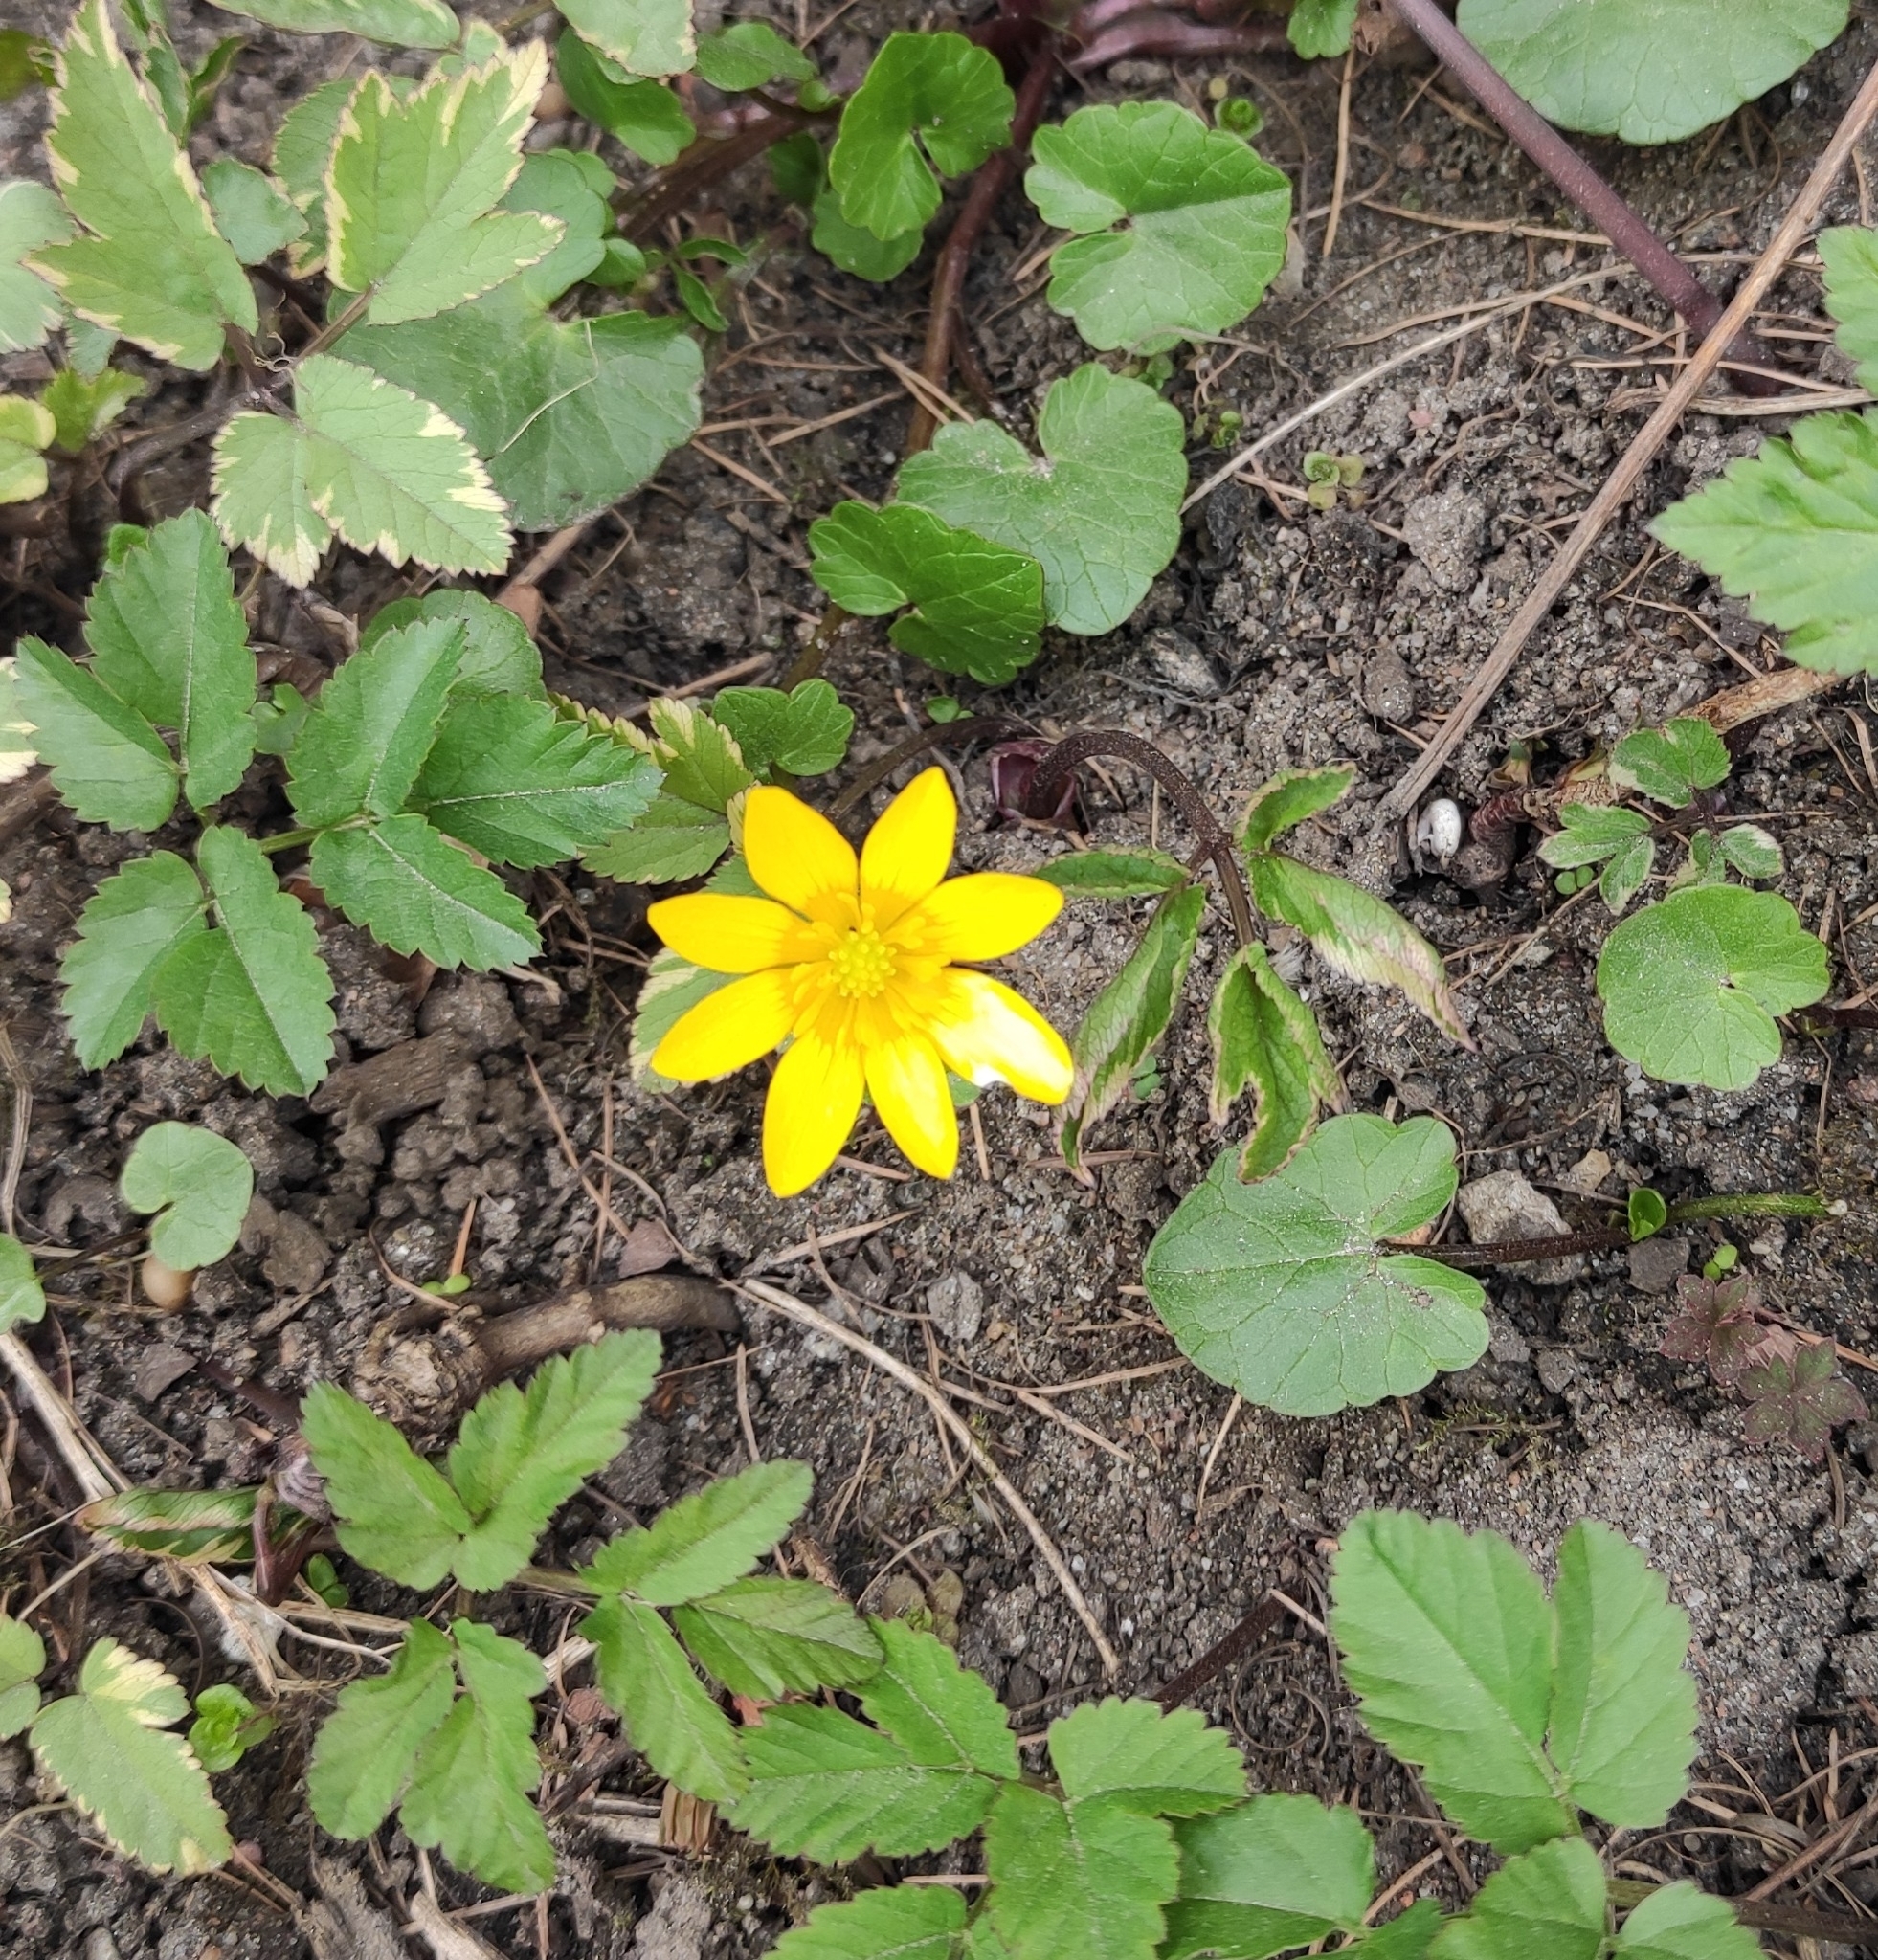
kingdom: Plantae
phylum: Tracheophyta
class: Magnoliopsida
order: Ranunculales
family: Ranunculaceae
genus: Ficaria
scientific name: Ficaria verna
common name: Lesser celandine
